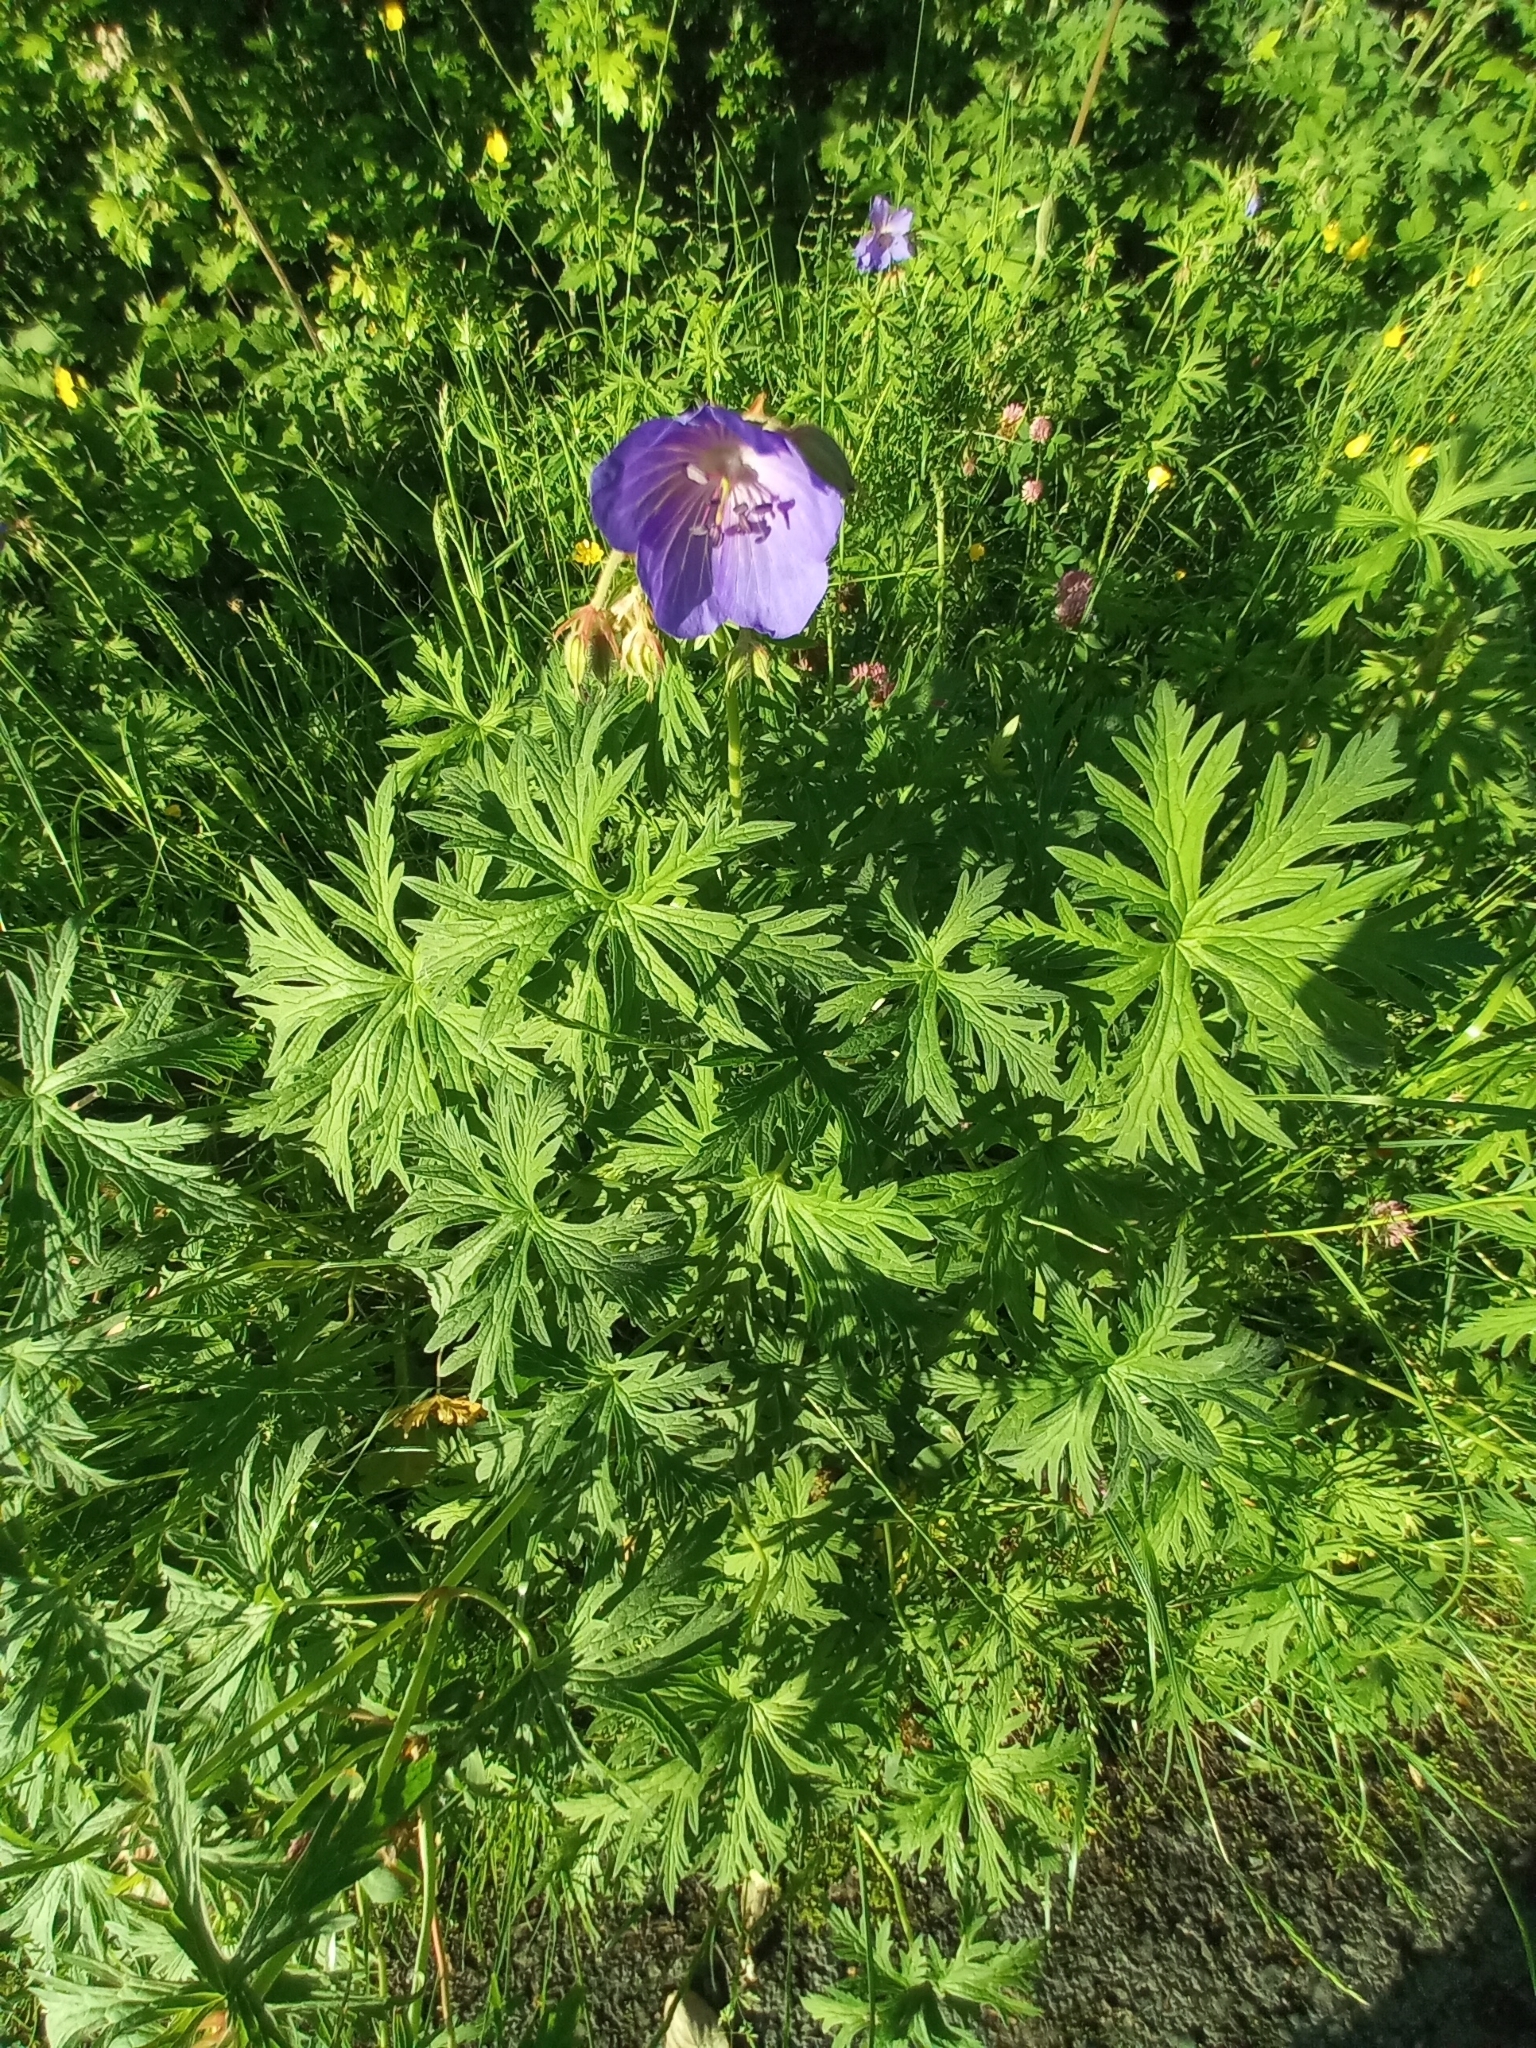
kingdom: Plantae
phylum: Tracheophyta
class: Magnoliopsida
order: Geraniales
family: Geraniaceae
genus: Geranium
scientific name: Geranium pratense
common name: Meadow crane's-bill
